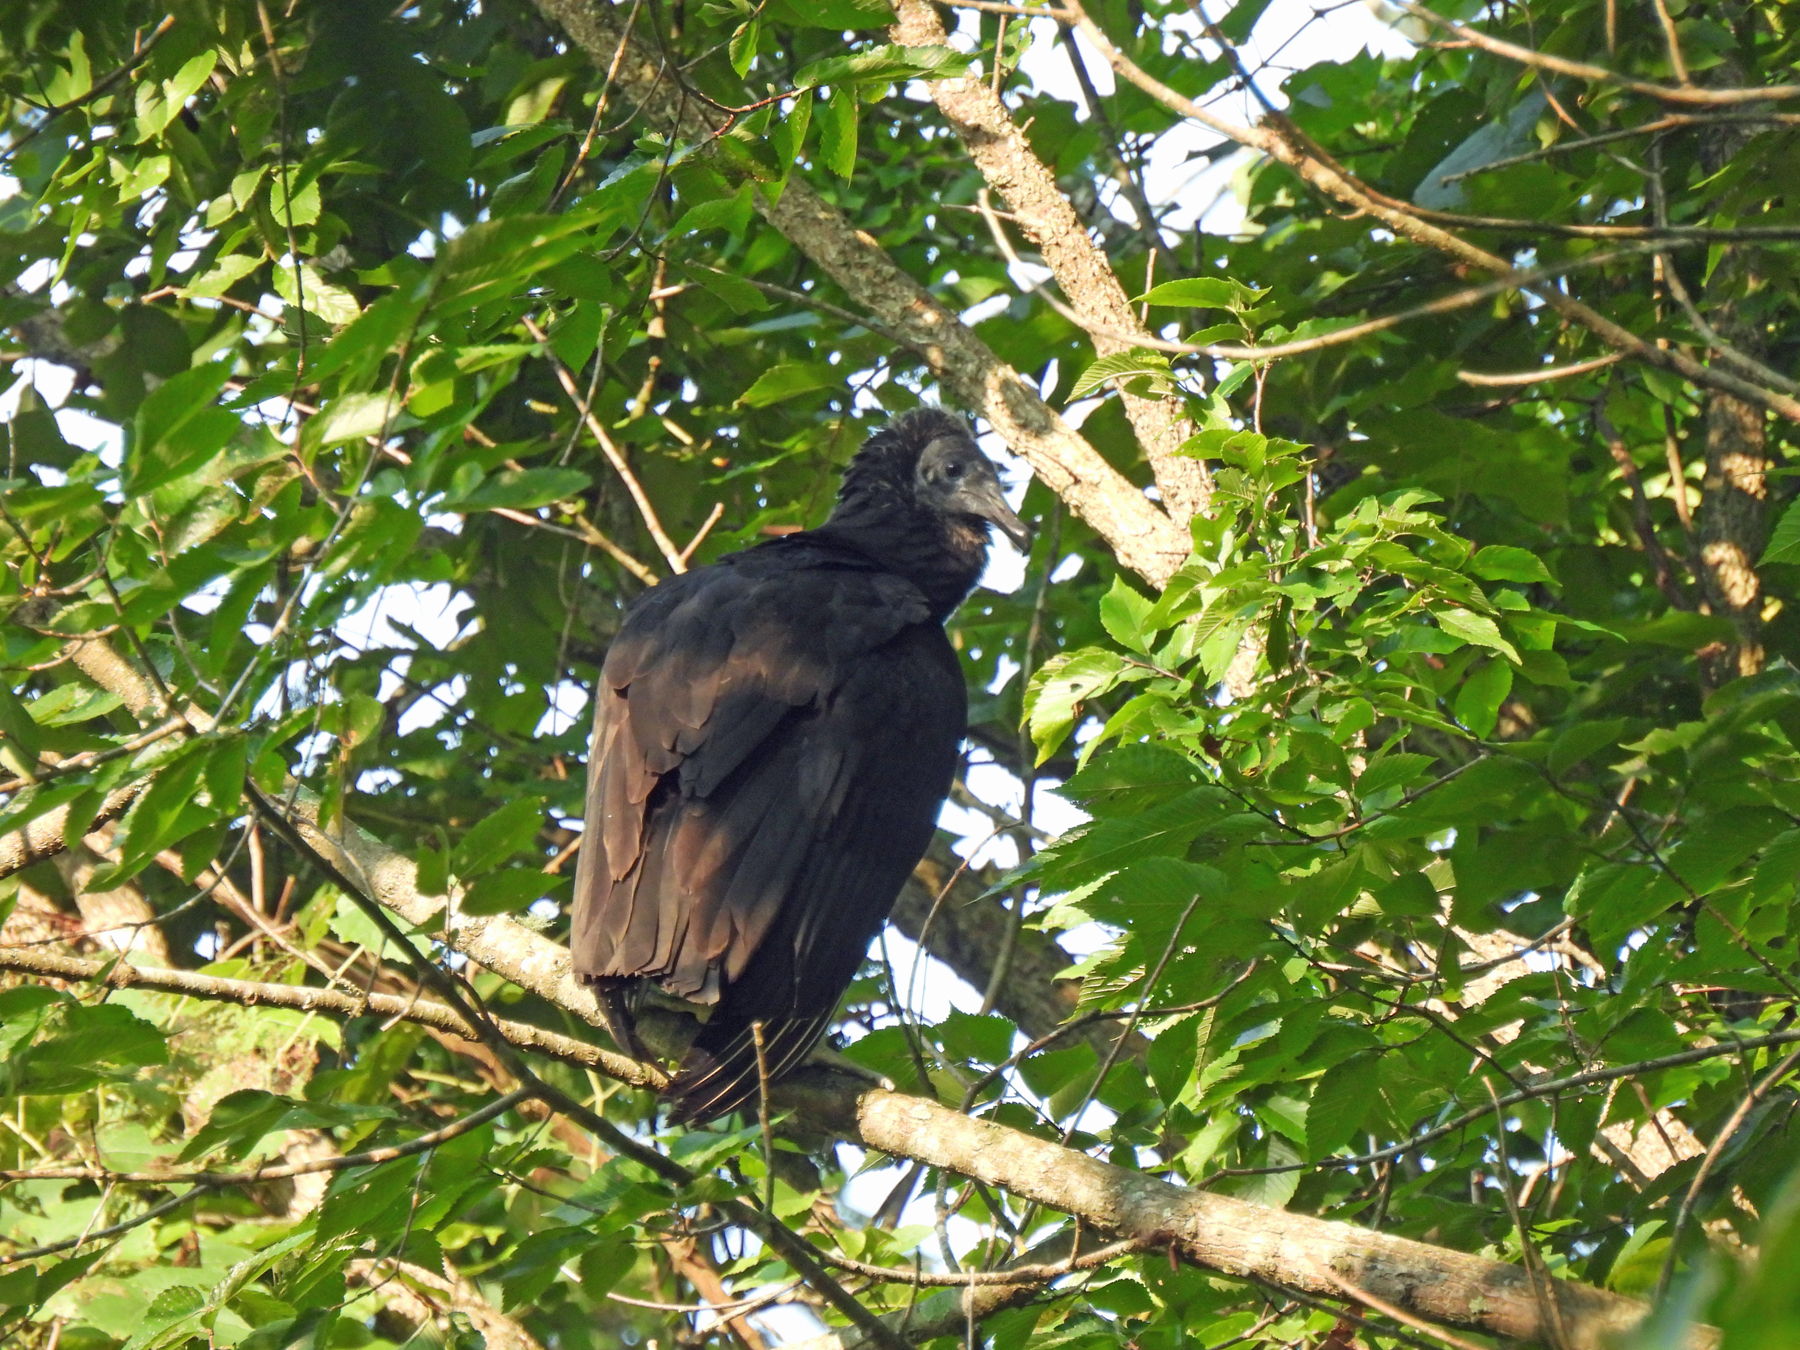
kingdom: Animalia
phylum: Chordata
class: Aves
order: Accipitriformes
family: Cathartidae
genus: Coragyps
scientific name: Coragyps atratus
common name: Black vulture
